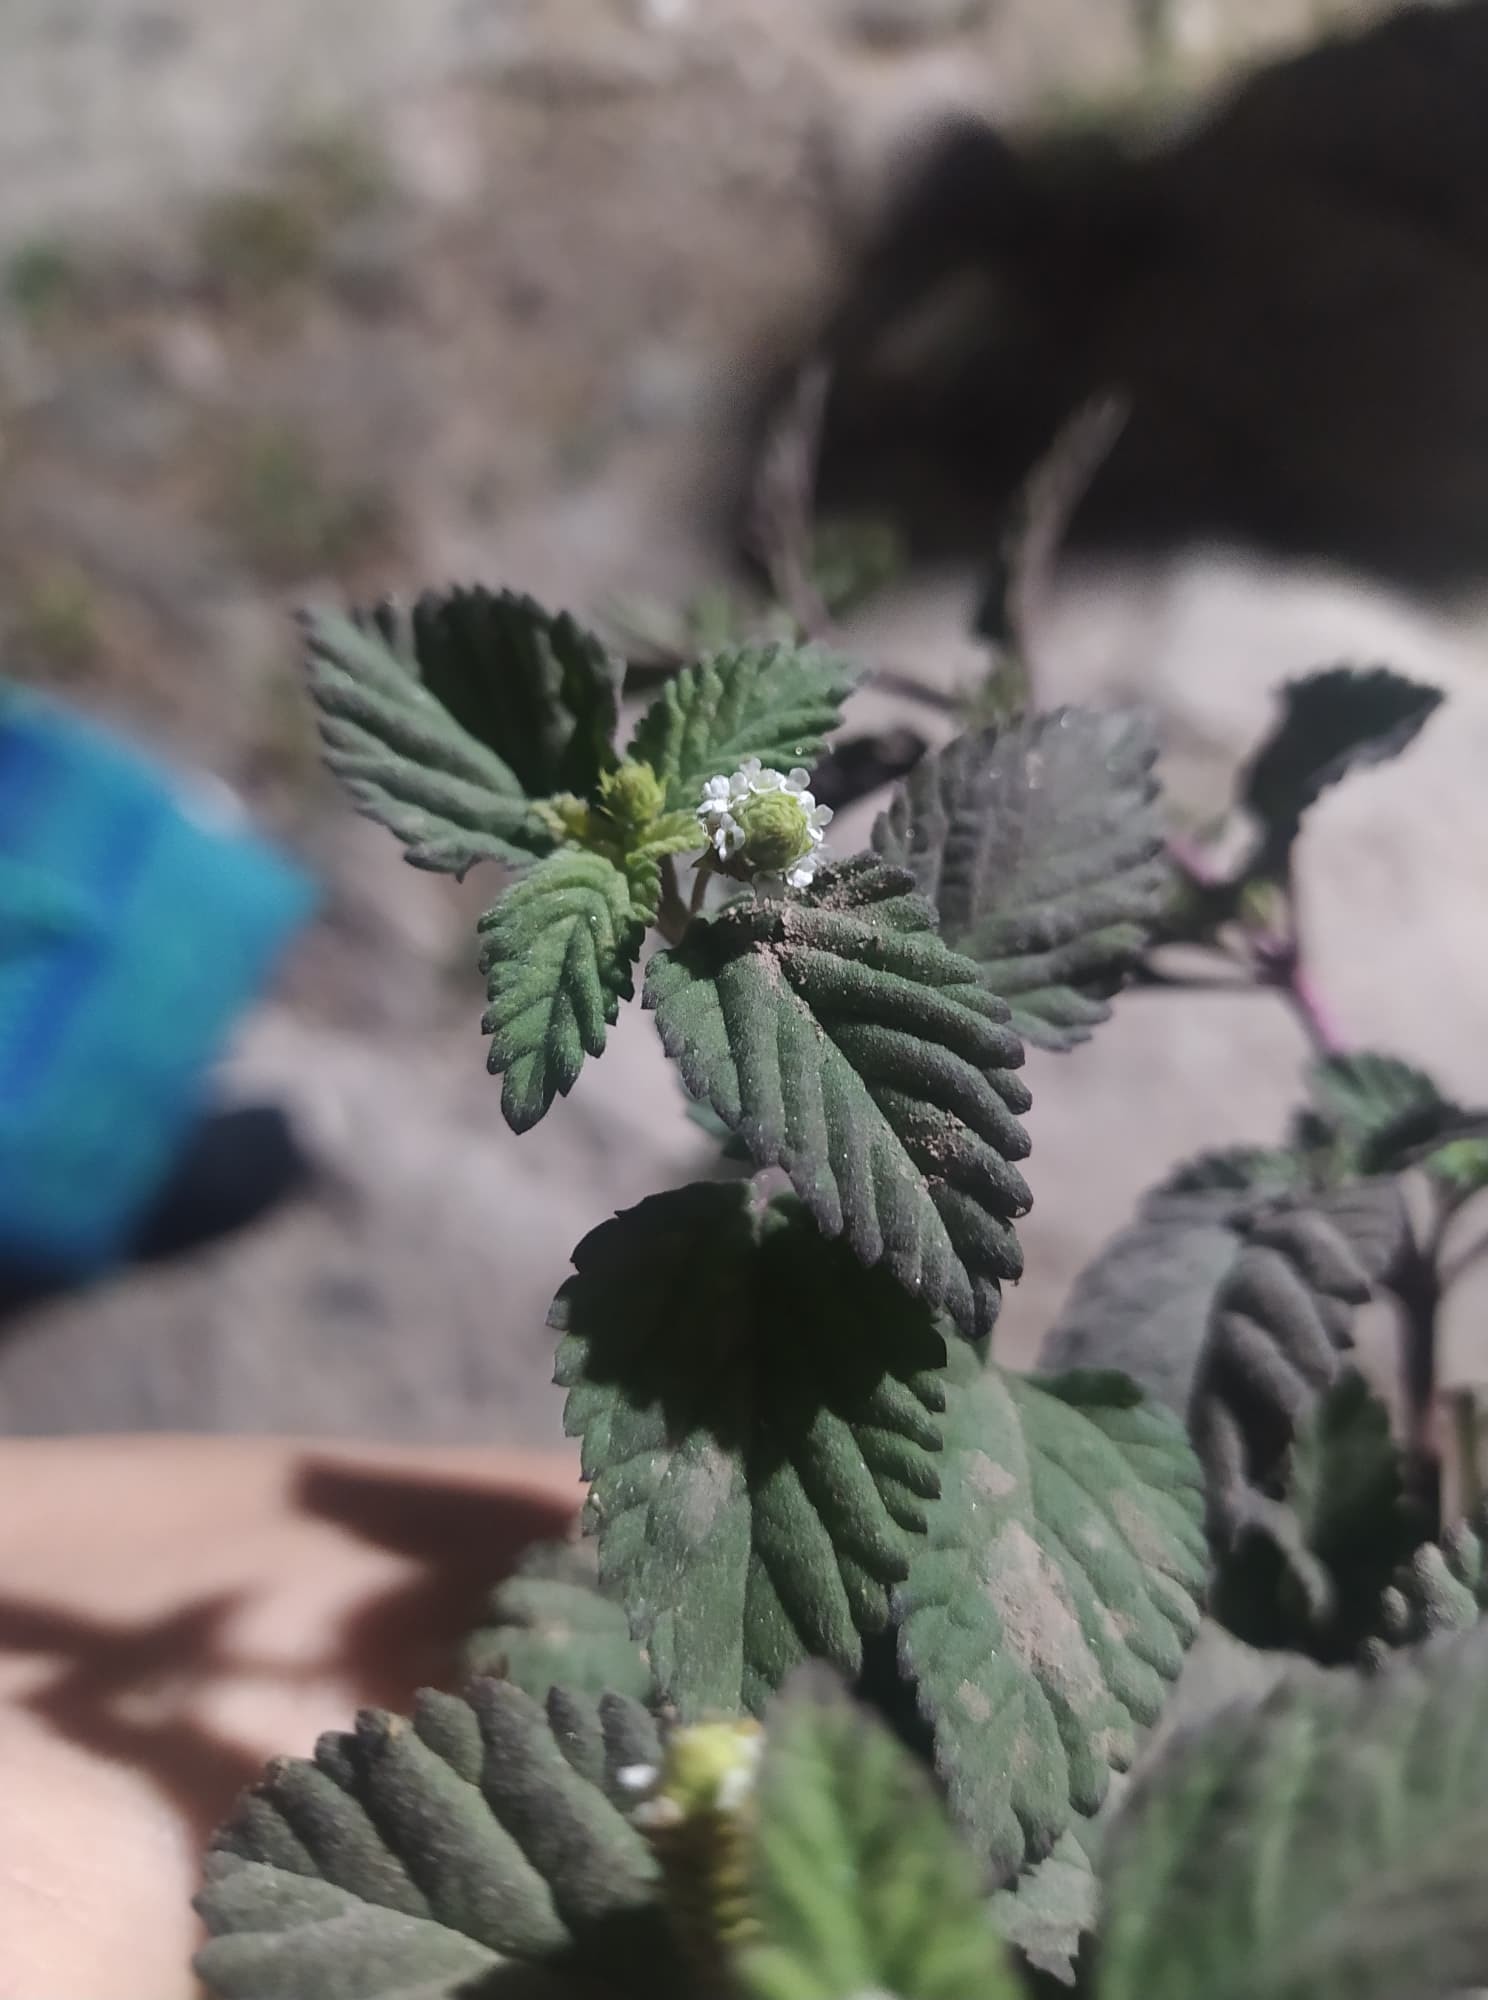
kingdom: Plantae
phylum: Tracheophyta
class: Magnoliopsida
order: Lamiales
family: Verbenaceae
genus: Lippia
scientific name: Lippia dulcis
